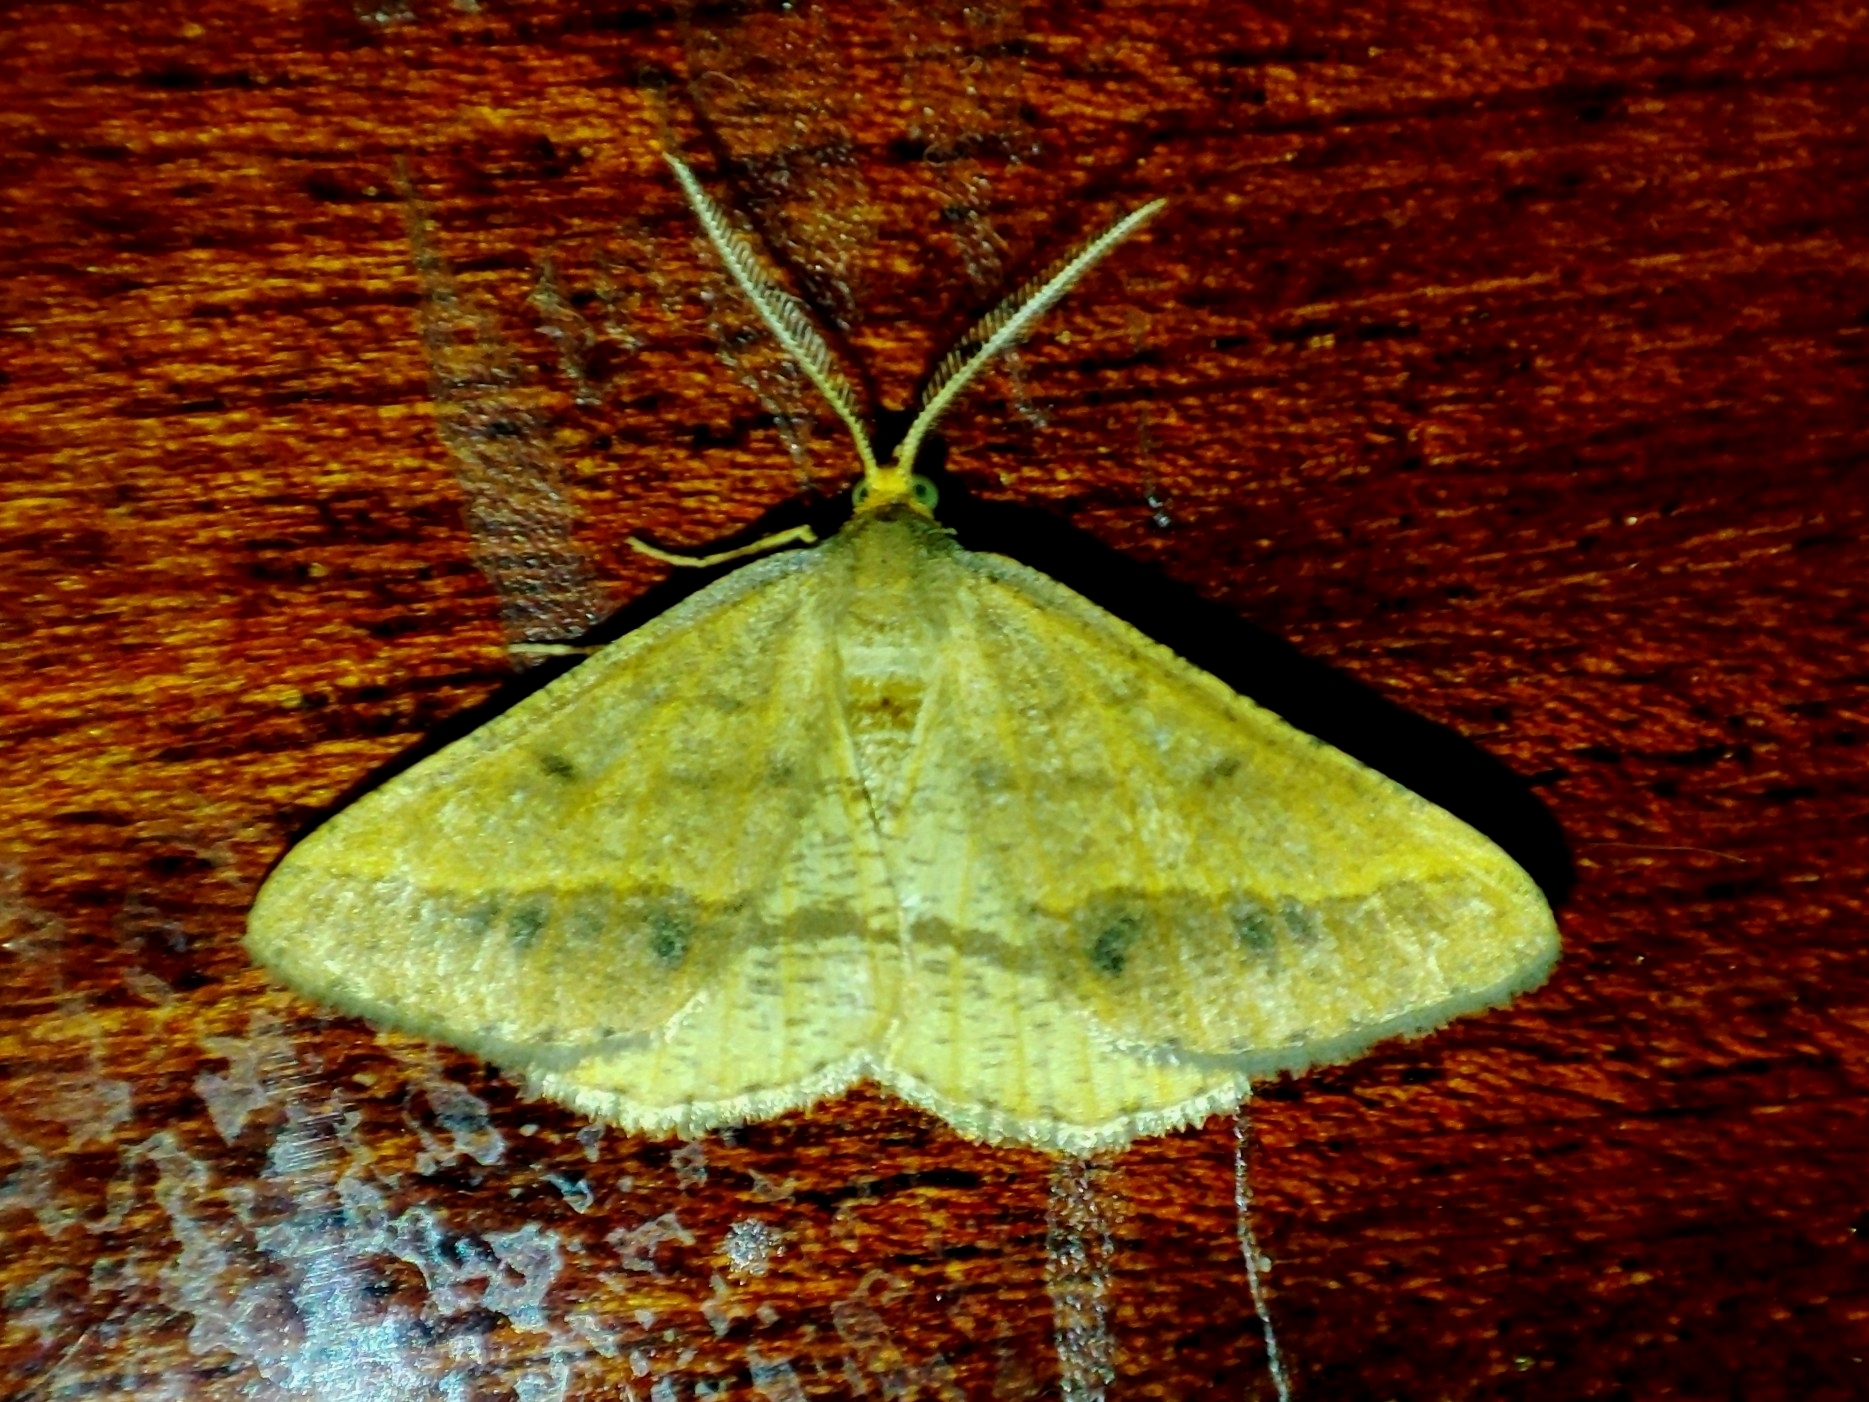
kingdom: Animalia
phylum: Arthropoda
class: Insecta
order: Lepidoptera
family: Geometridae
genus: Tephrina
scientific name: Tephrina arenacearia
